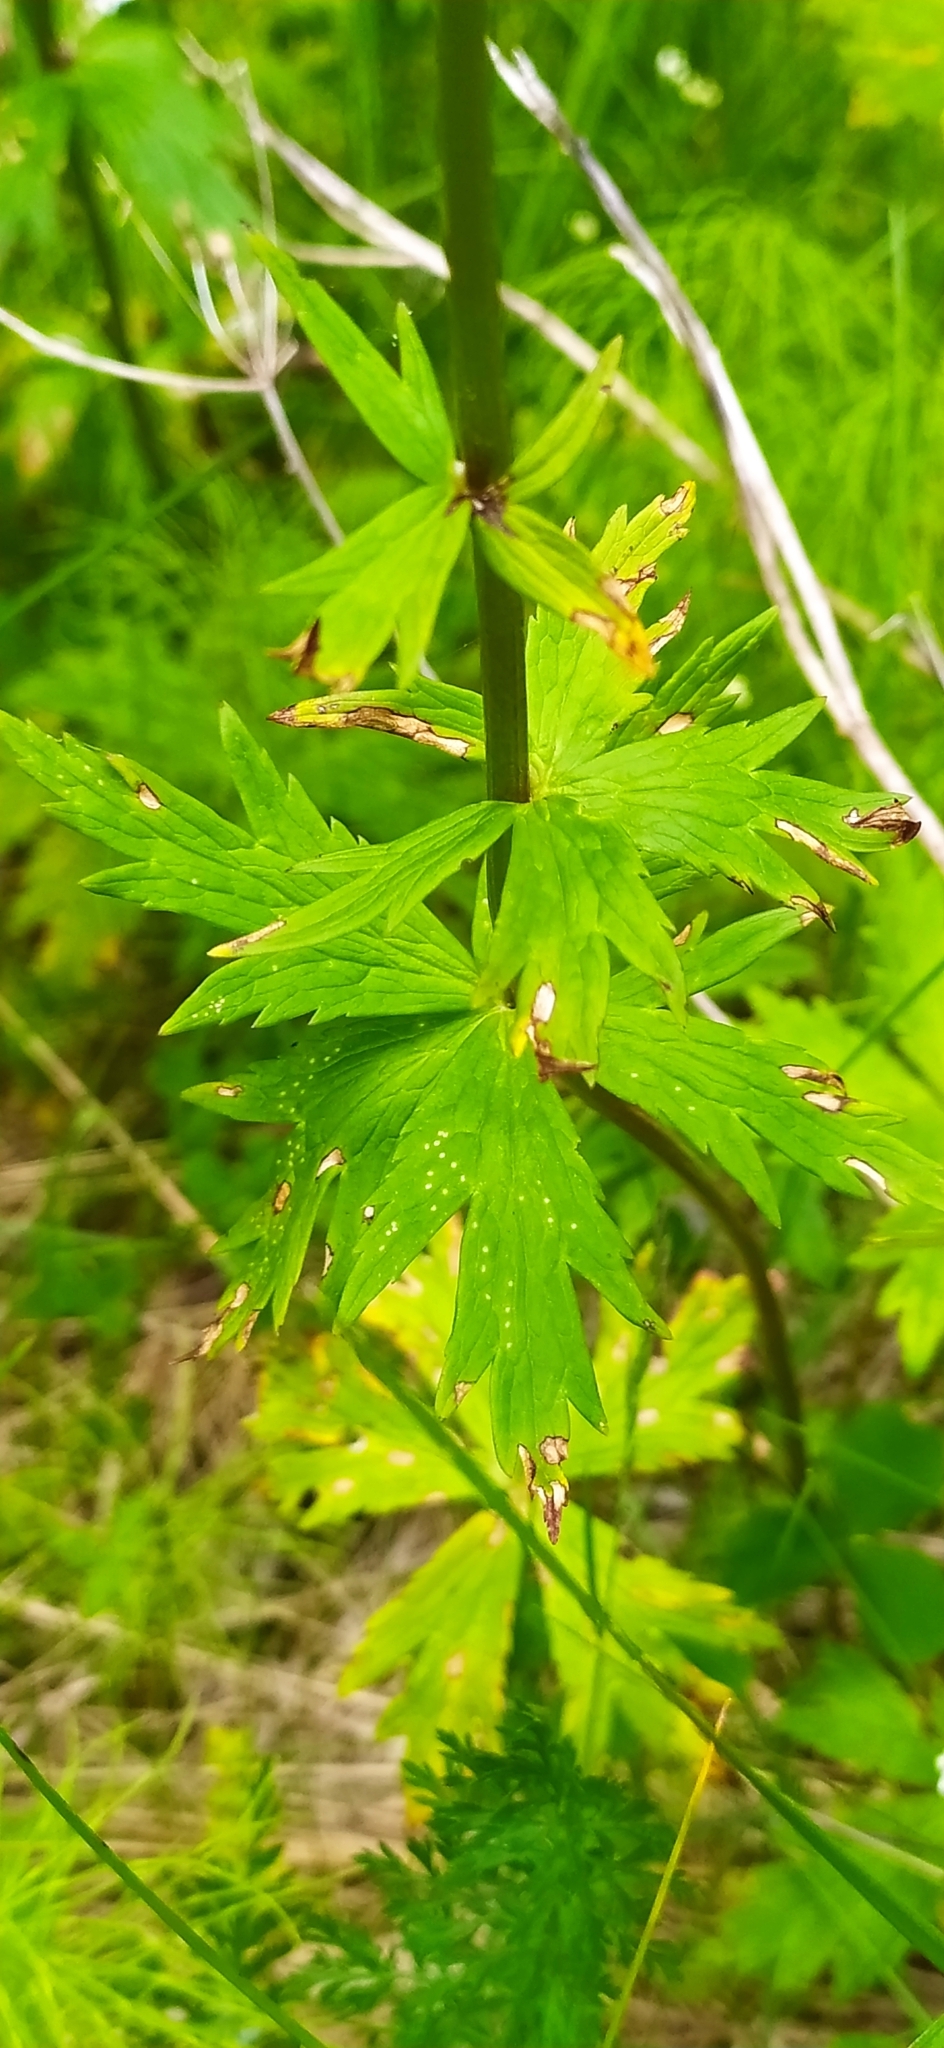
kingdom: Plantae
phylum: Tracheophyta
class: Magnoliopsida
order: Ranunculales
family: Ranunculaceae
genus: Trollius
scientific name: Trollius europaeus
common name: European globeflower
